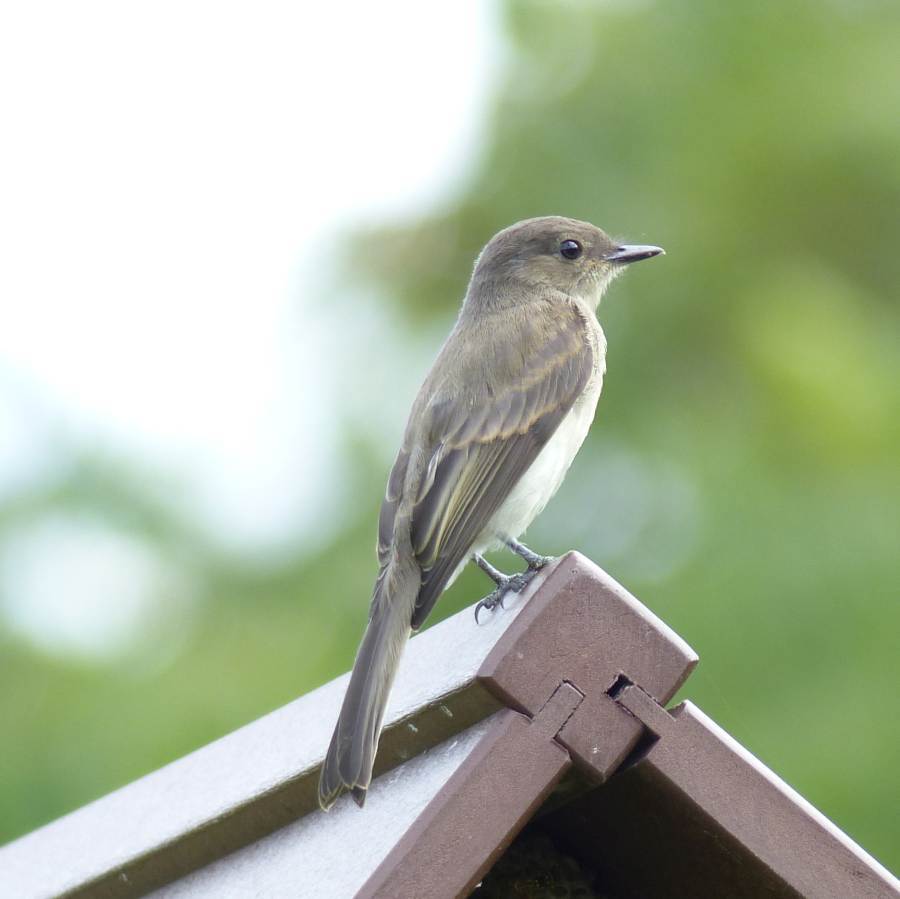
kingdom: Animalia
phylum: Chordata
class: Aves
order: Passeriformes
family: Tyrannidae
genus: Sayornis
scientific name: Sayornis phoebe
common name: Eastern phoebe
